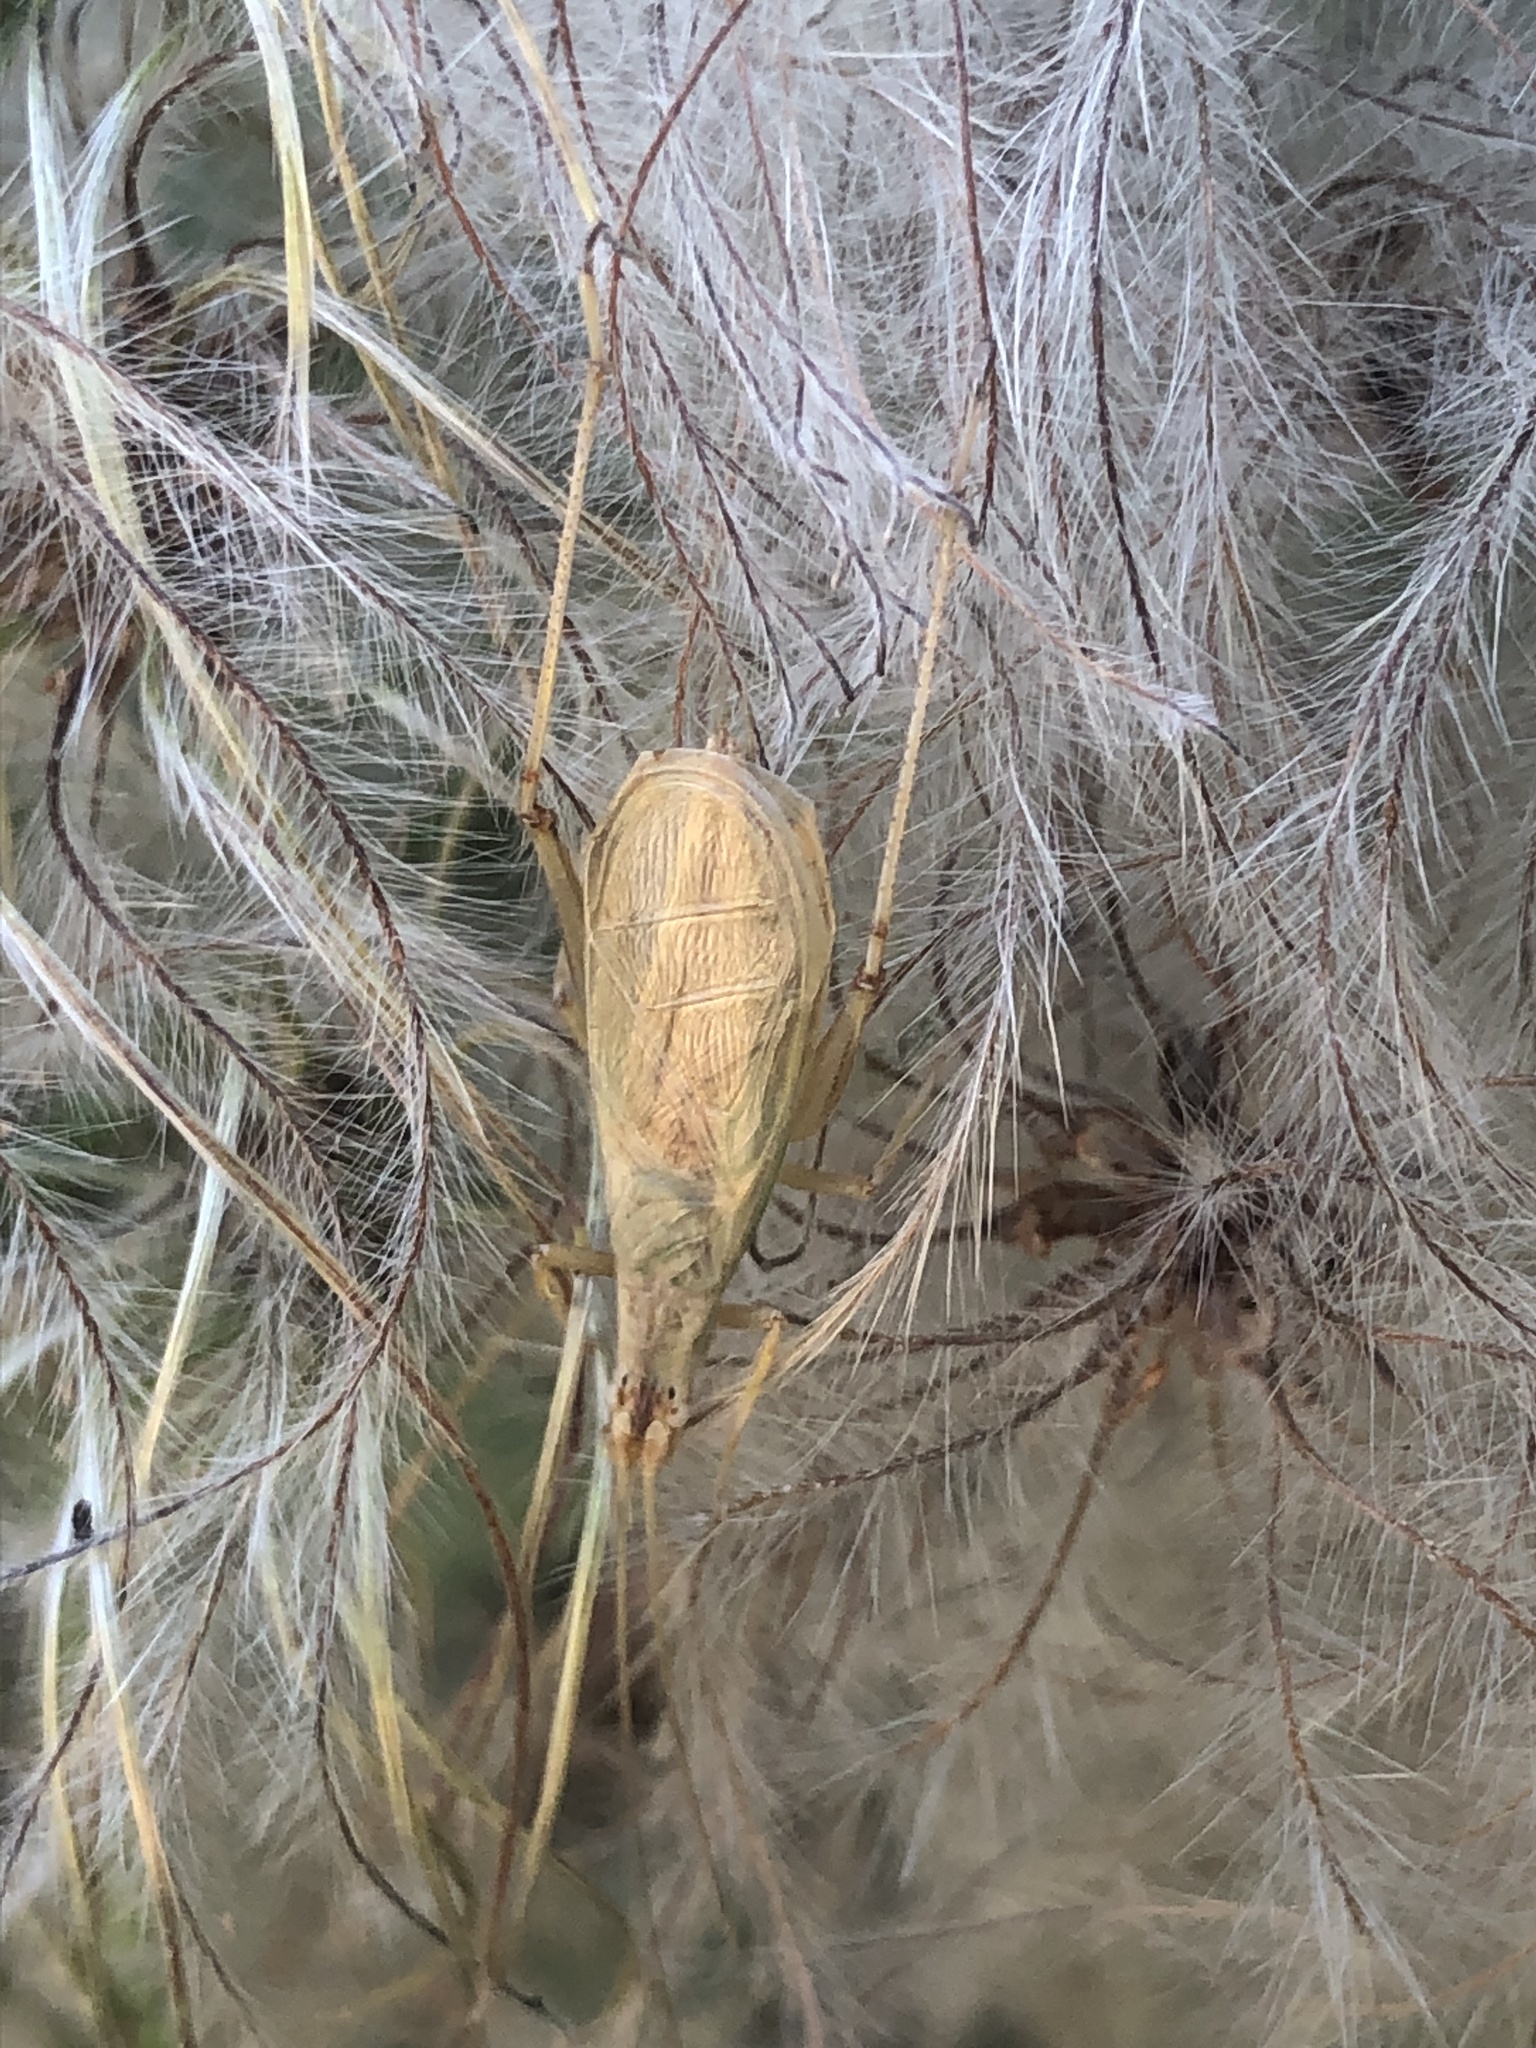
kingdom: Animalia
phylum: Arthropoda
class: Insecta
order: Orthoptera
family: Gryllidae
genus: Oecanthus
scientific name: Oecanthus pellucens
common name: Tree-cricket
